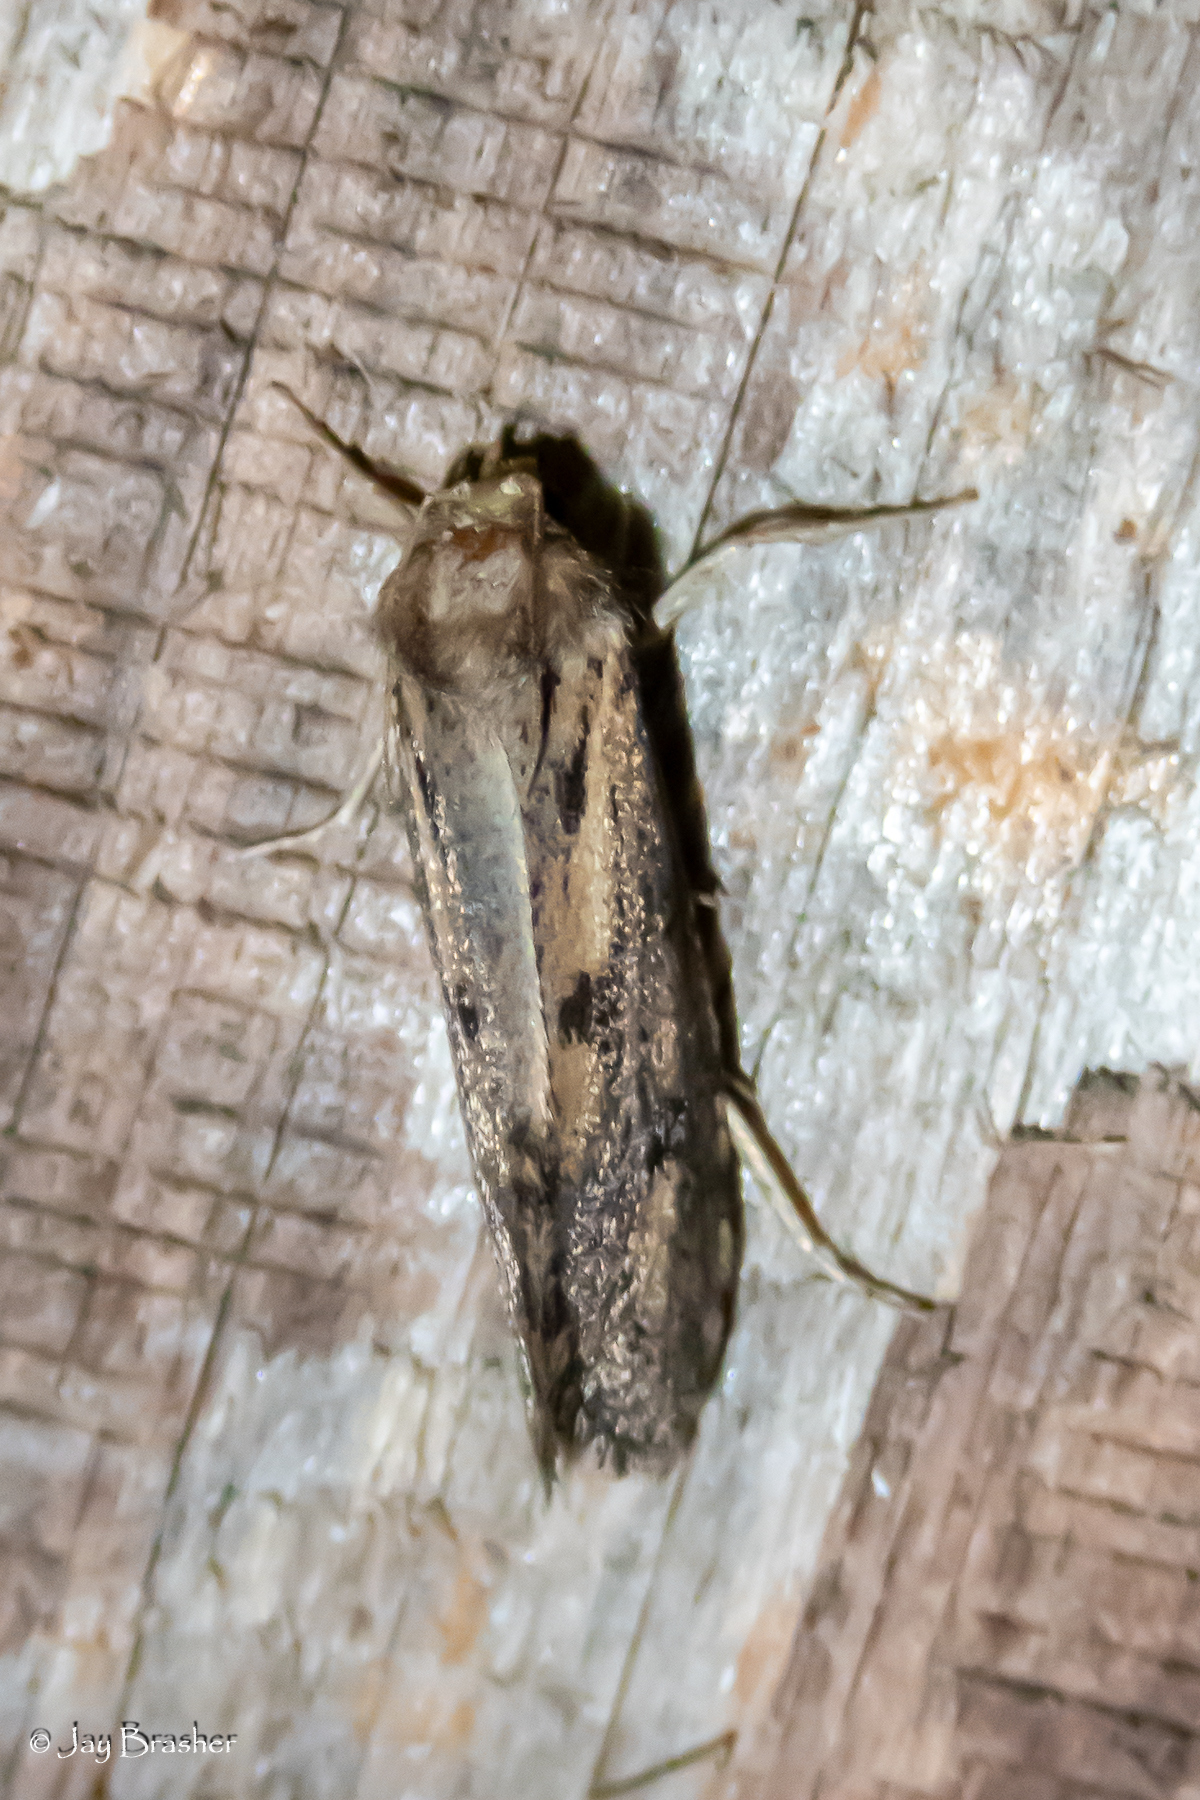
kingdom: Animalia
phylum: Arthropoda
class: Insecta
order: Lepidoptera
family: Tineidae
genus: Acrolophus
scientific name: Acrolophus popeanella
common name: Clemens' grass tubeworm moth
